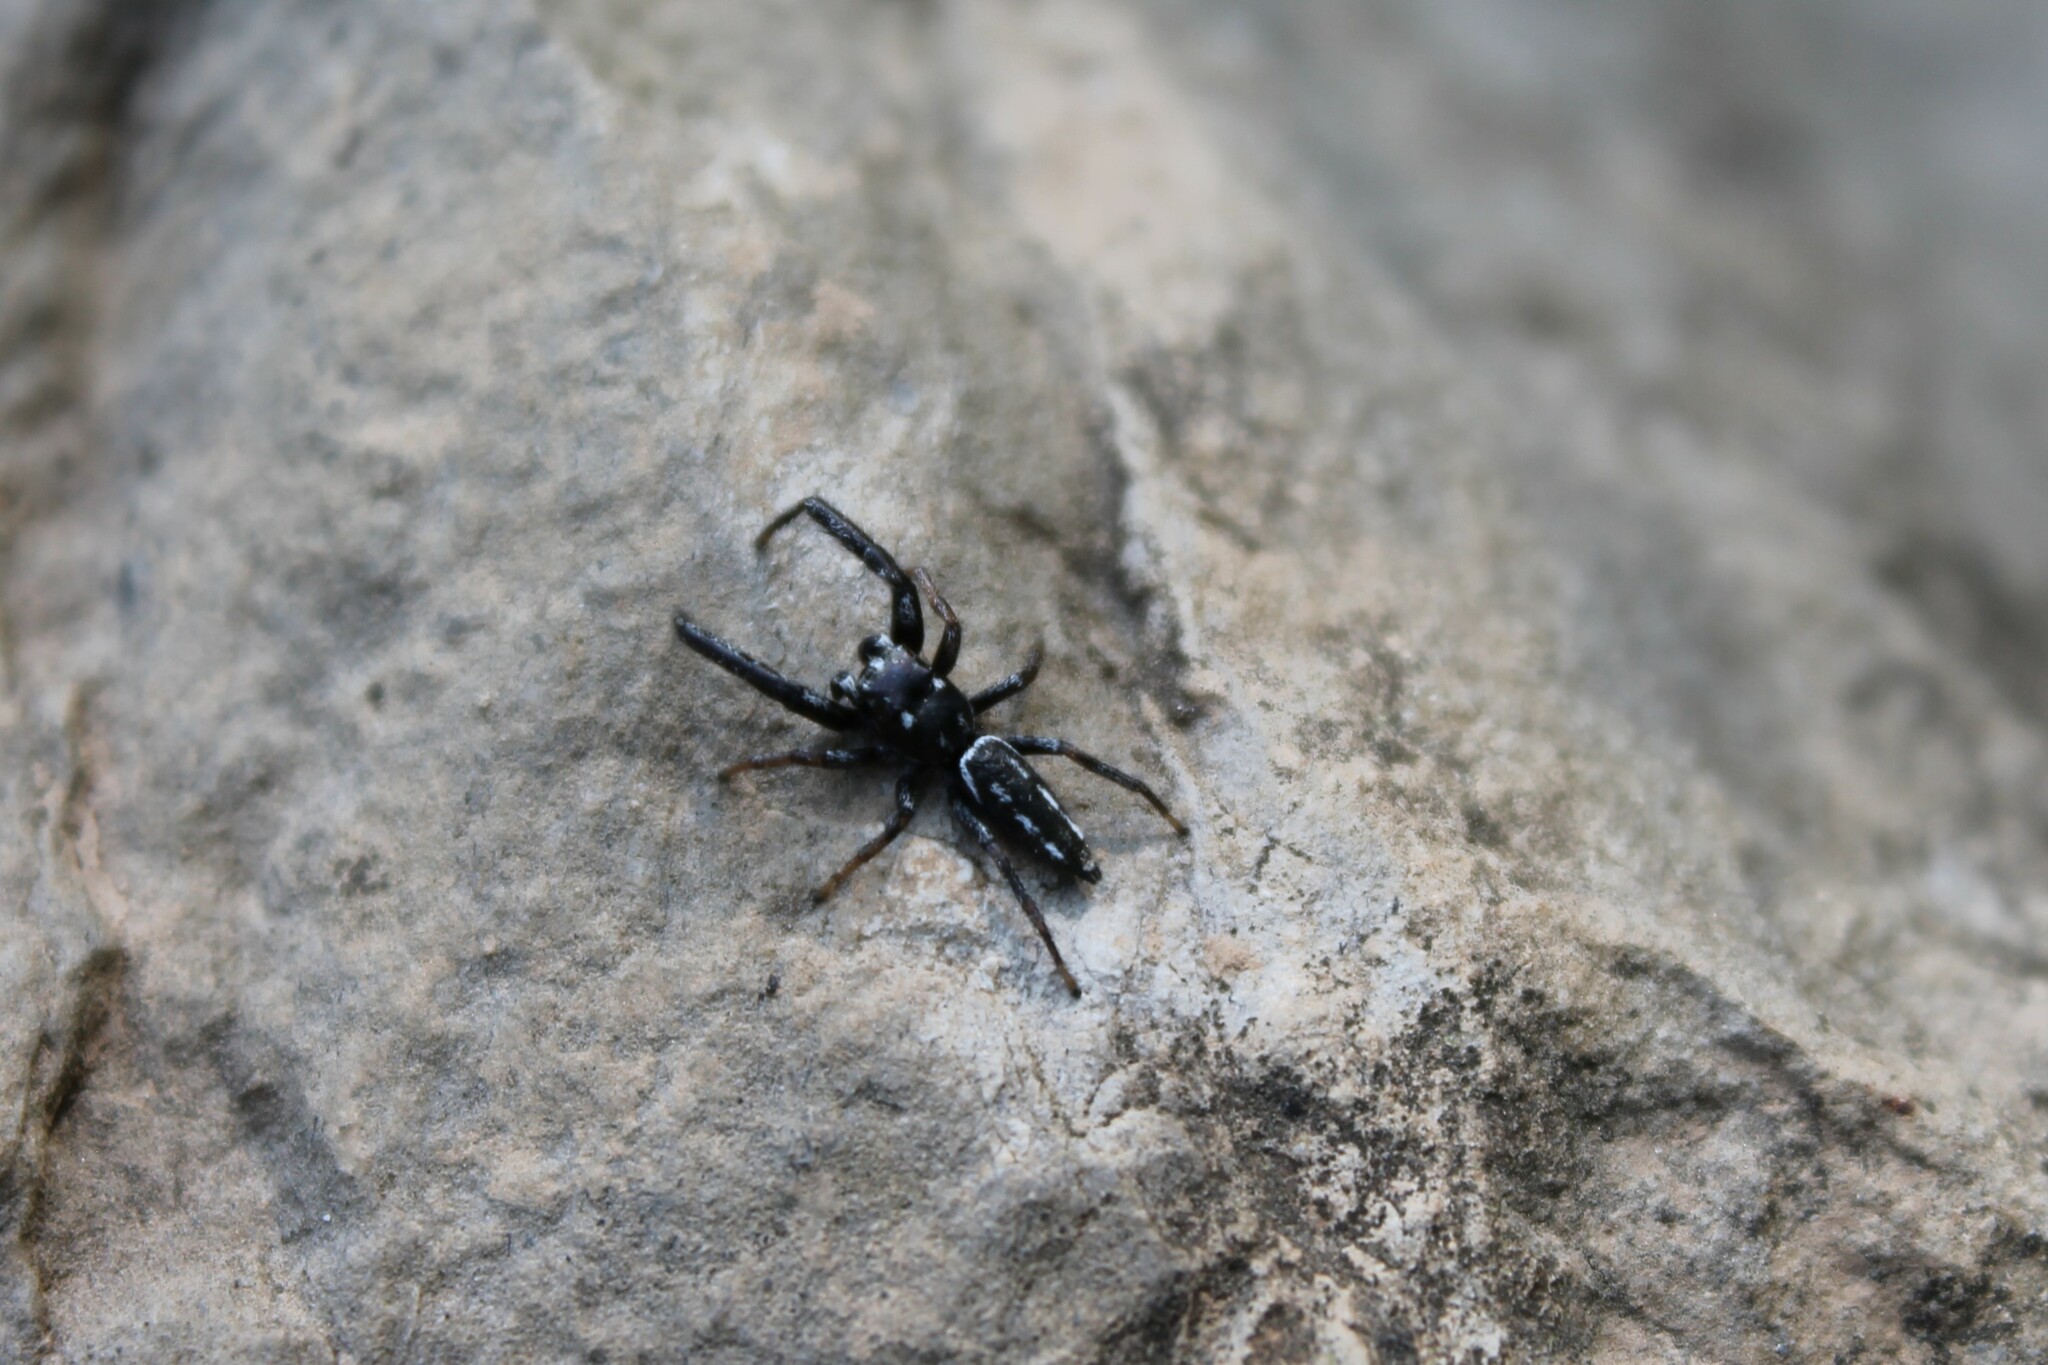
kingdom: Animalia
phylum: Arthropoda
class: Arachnida
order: Araneae
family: Salticidae
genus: Marpissa
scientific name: Marpissa formosa
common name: Short-bellied slender jumping spider
